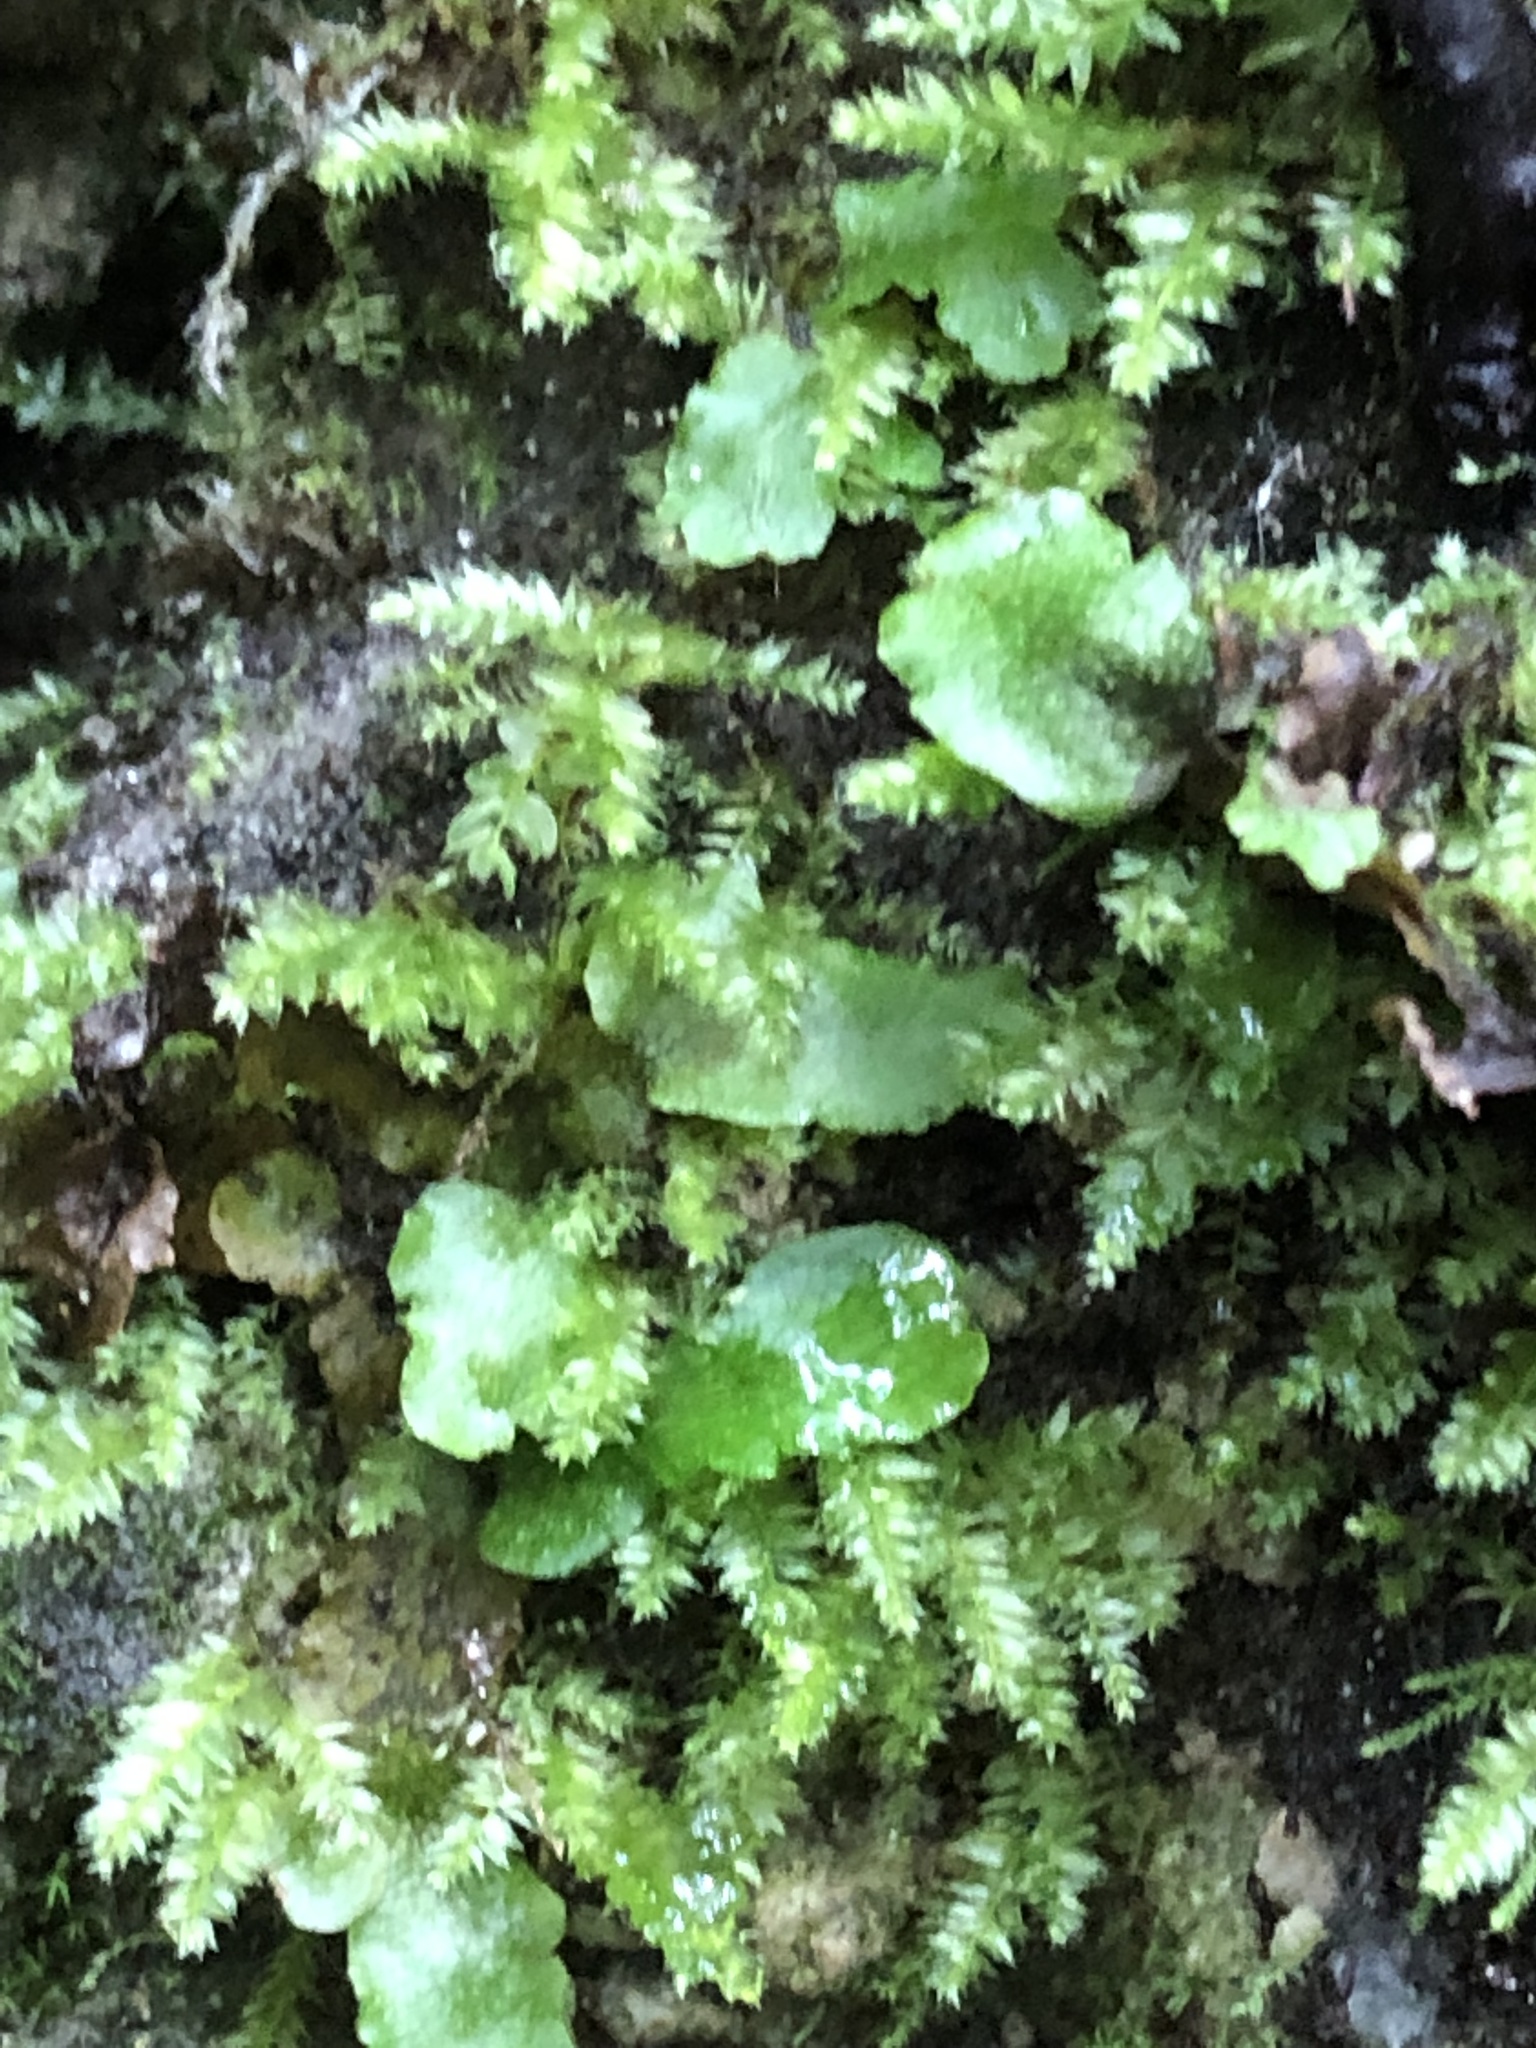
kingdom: Plantae
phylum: Marchantiophyta
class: Marchantiopsida
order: Marchantiales
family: Conocephalaceae
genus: Conocephalum
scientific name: Conocephalum salebrosum
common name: Cat-tongue liverwort
